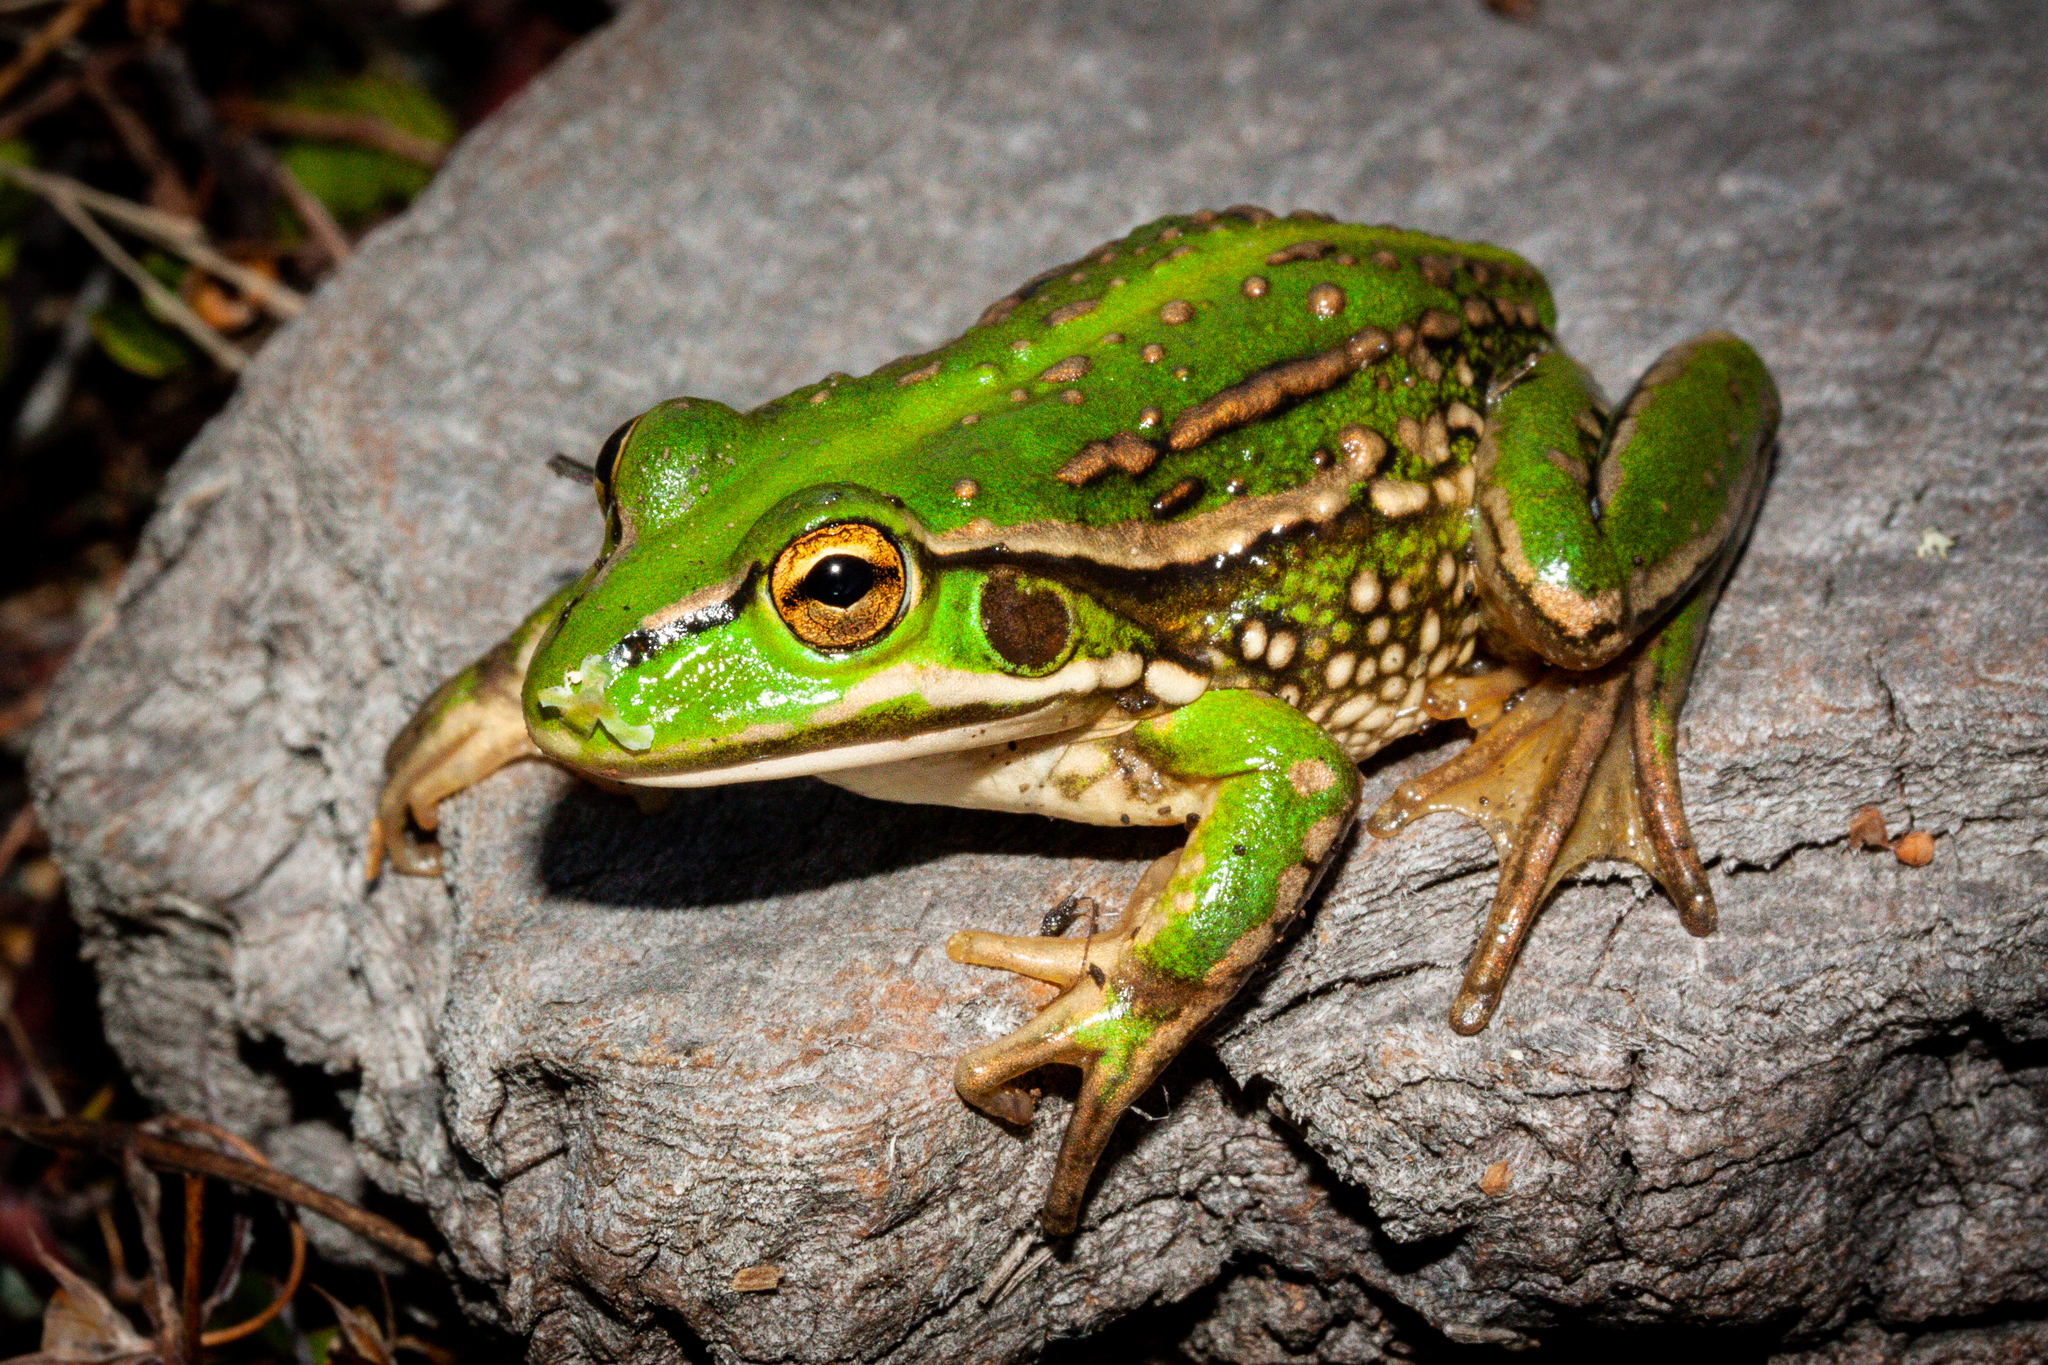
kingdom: Animalia
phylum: Chordata
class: Amphibia
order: Anura
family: Pelodryadidae
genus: Ranoidea
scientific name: Ranoidea raniformis
